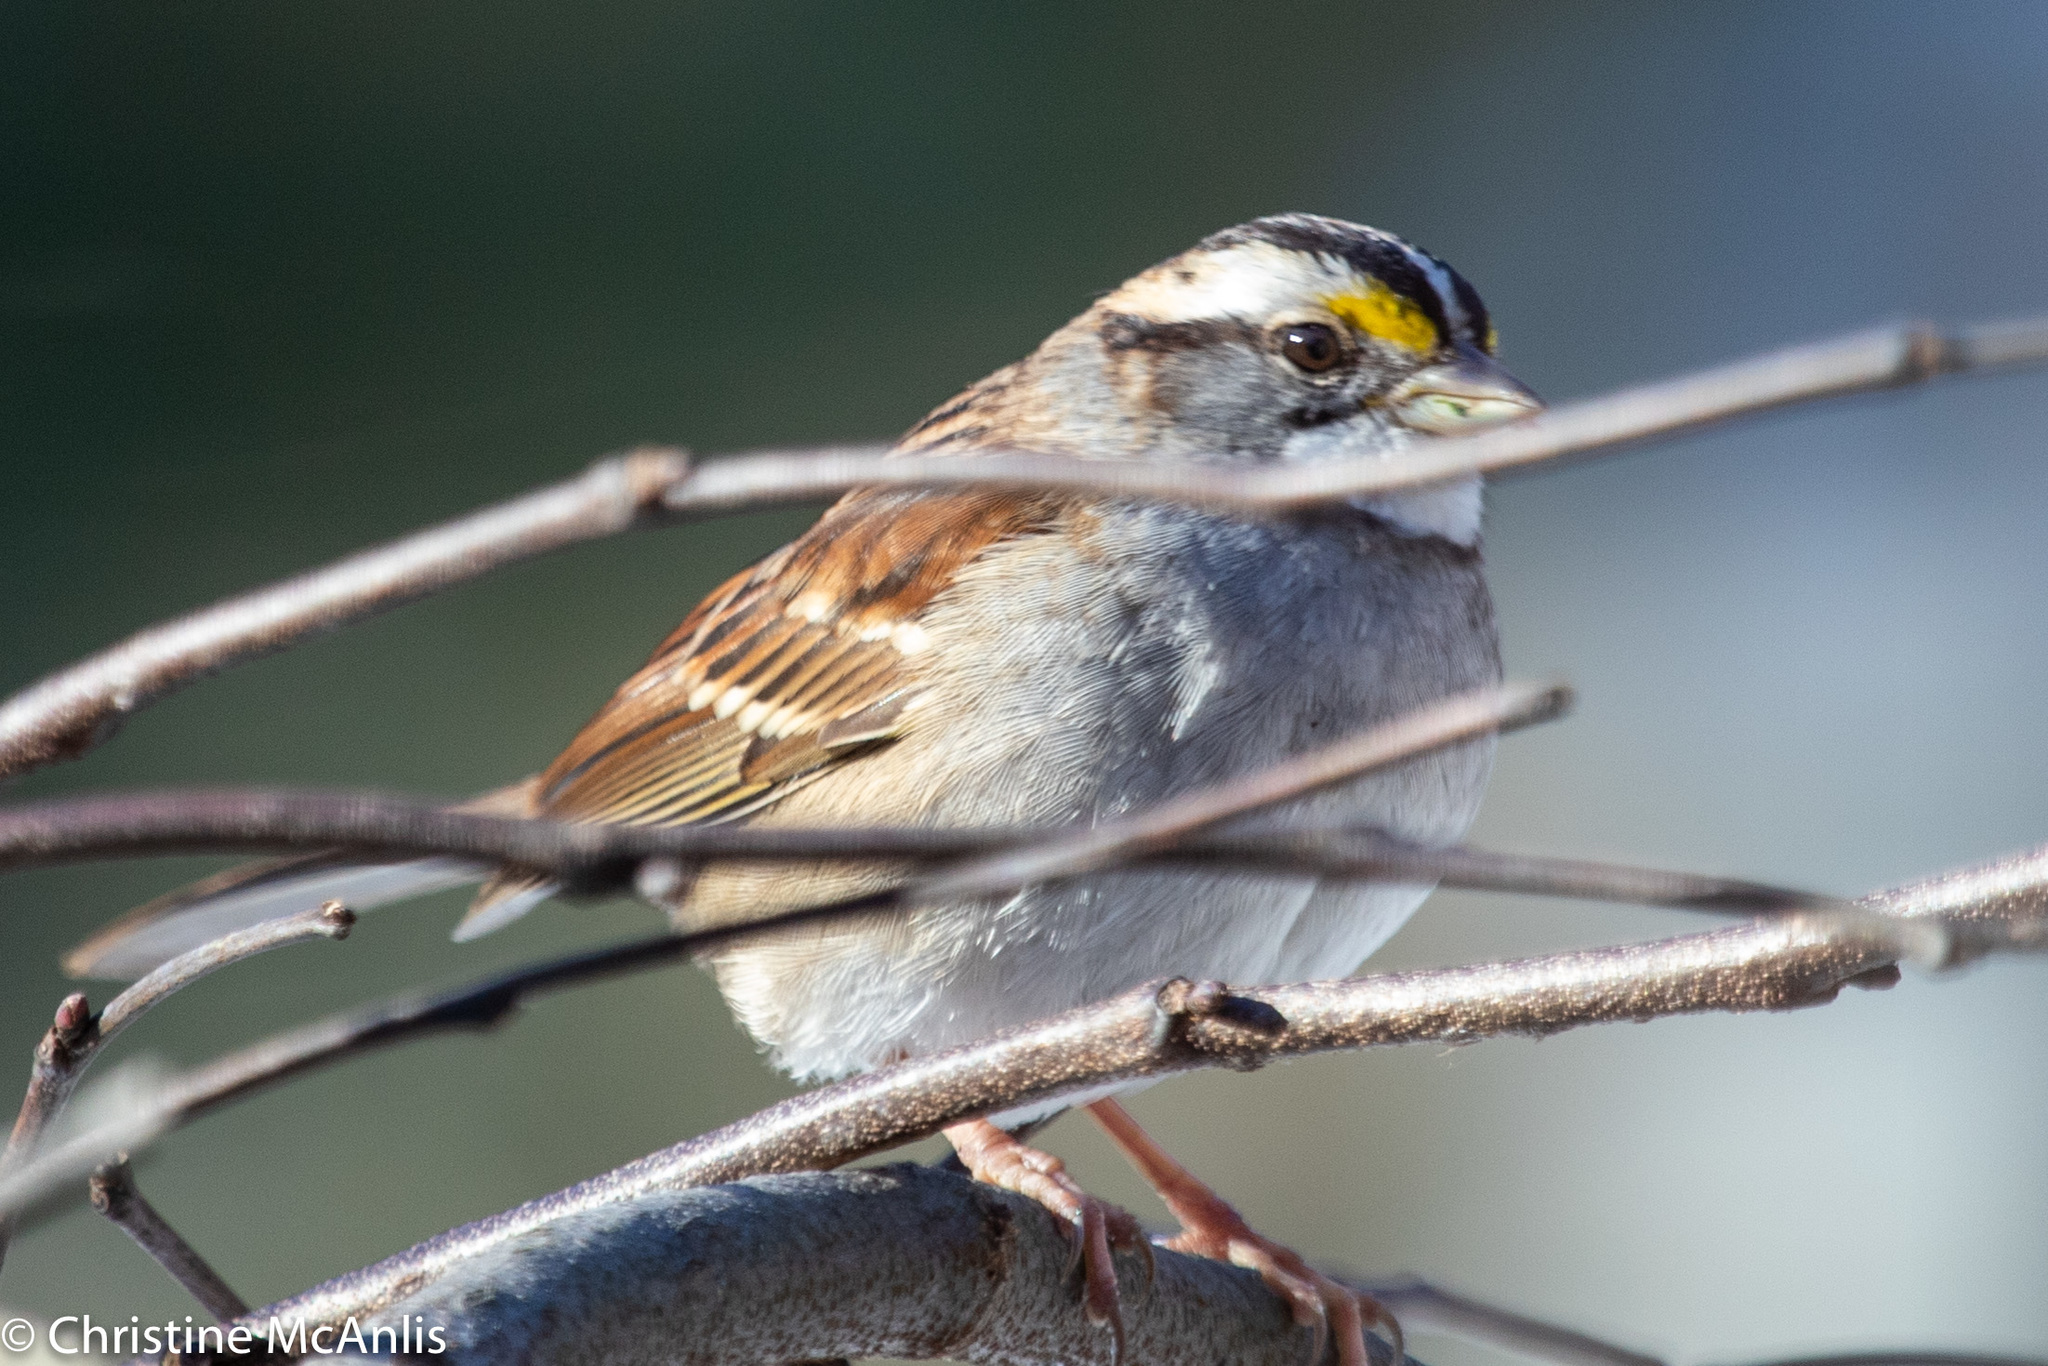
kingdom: Animalia
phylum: Chordata
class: Aves
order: Passeriformes
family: Passerellidae
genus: Zonotrichia
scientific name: Zonotrichia albicollis
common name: White-throated sparrow
